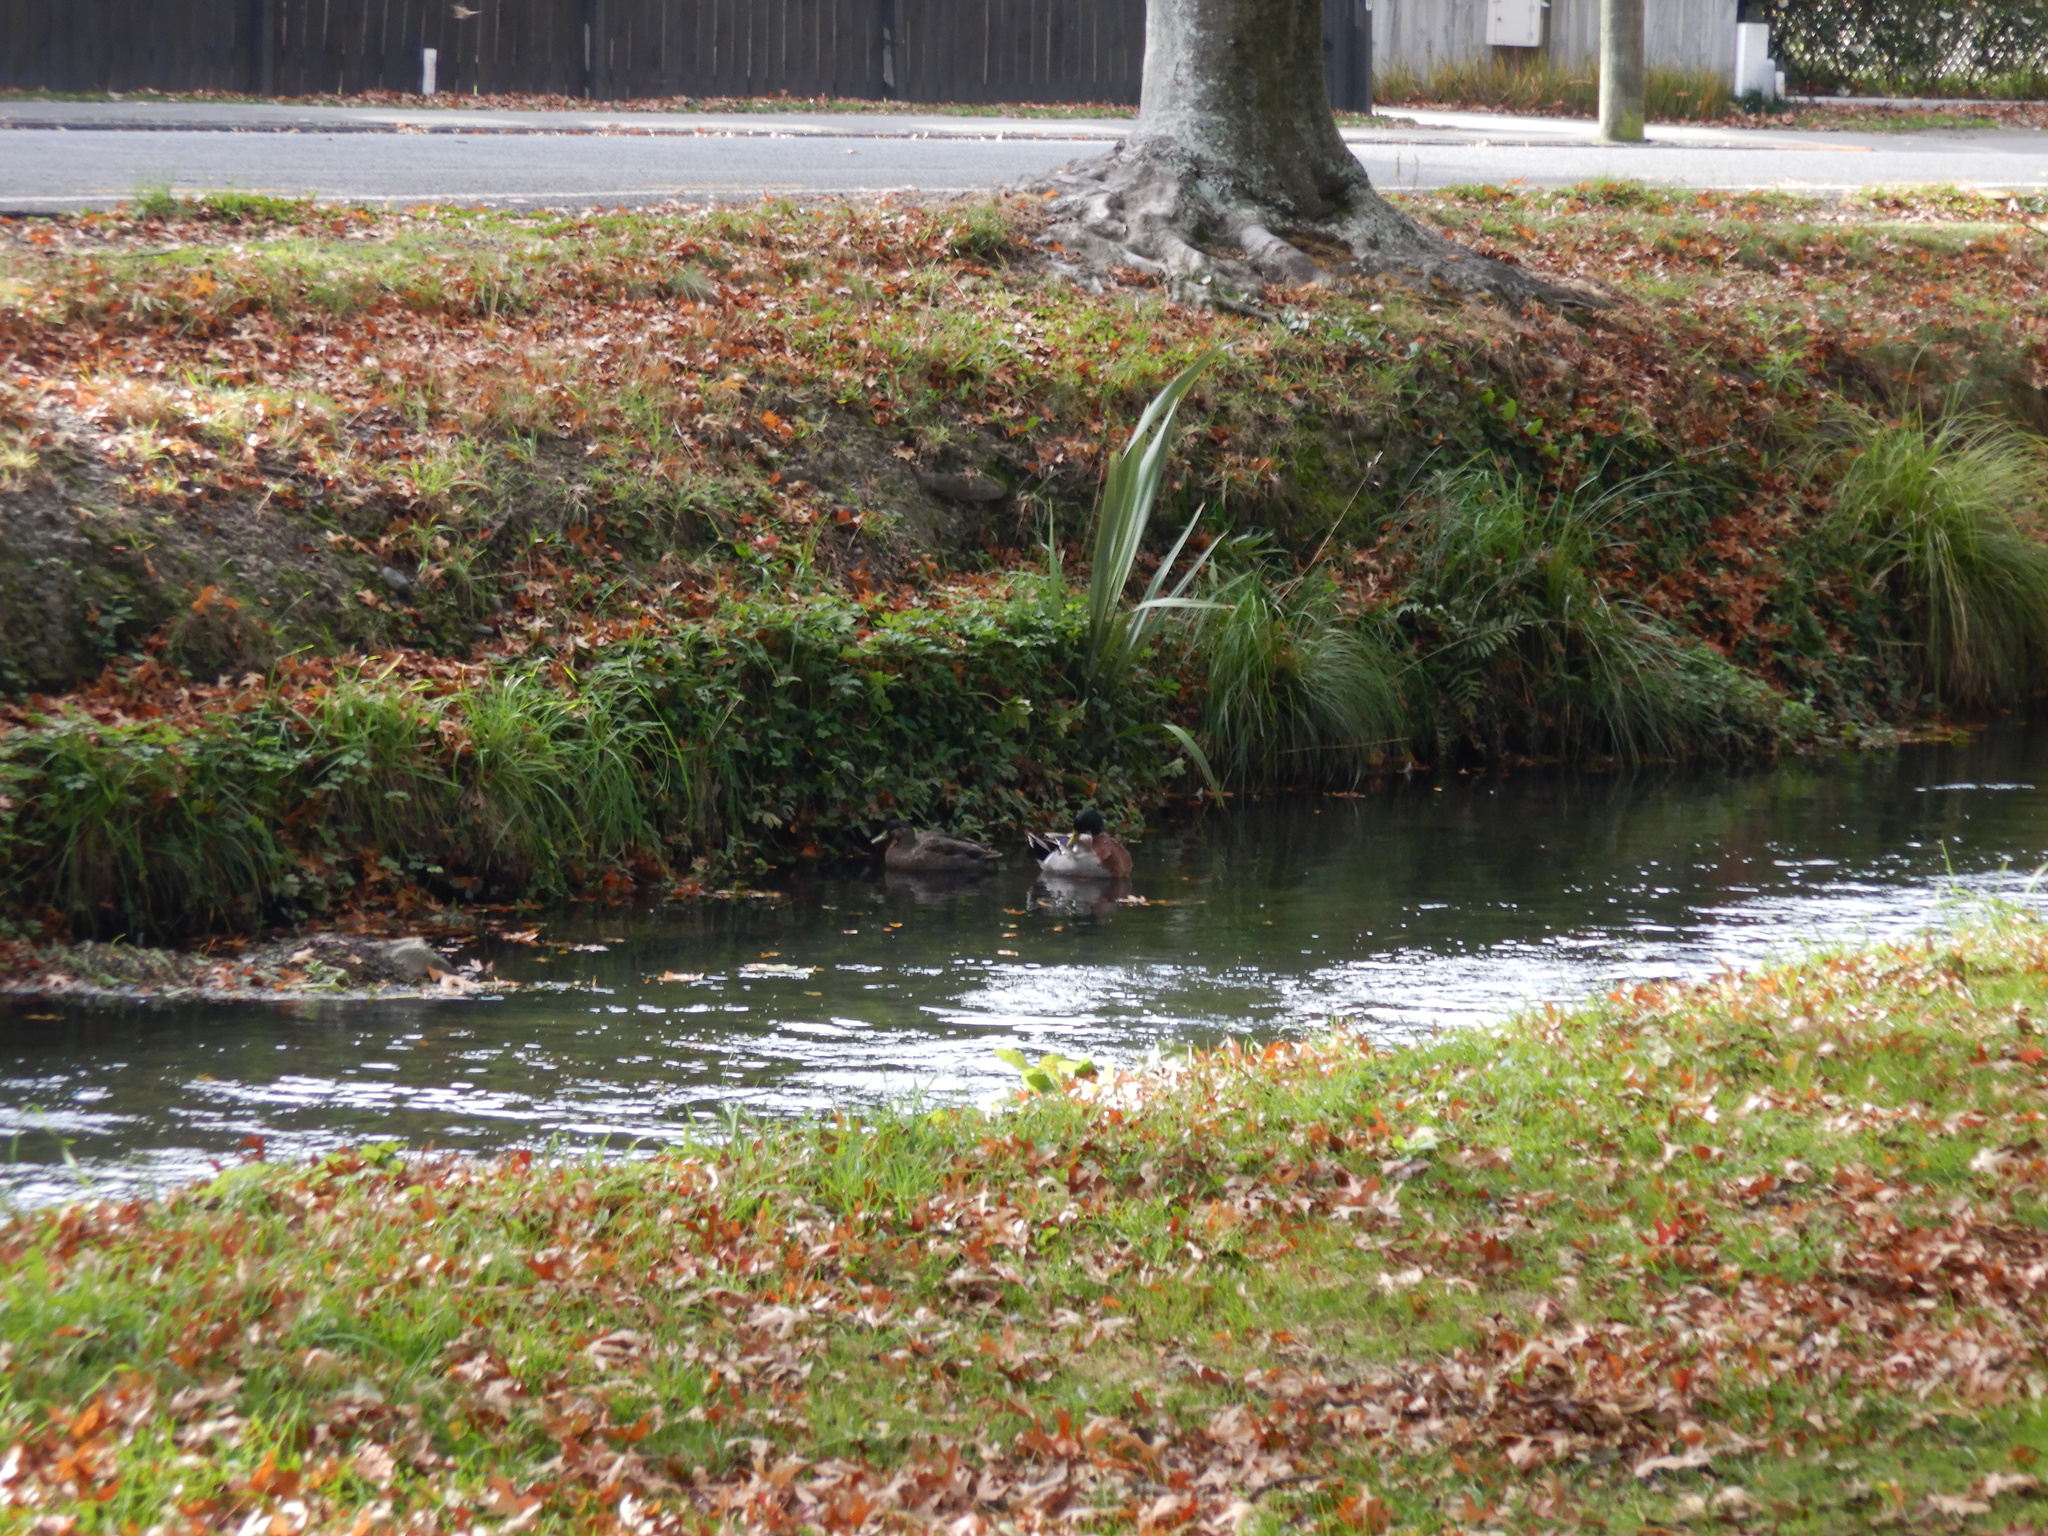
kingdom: Animalia
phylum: Chordata
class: Aves
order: Anseriformes
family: Anatidae
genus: Anas
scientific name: Anas platyrhynchos
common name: Mallard
